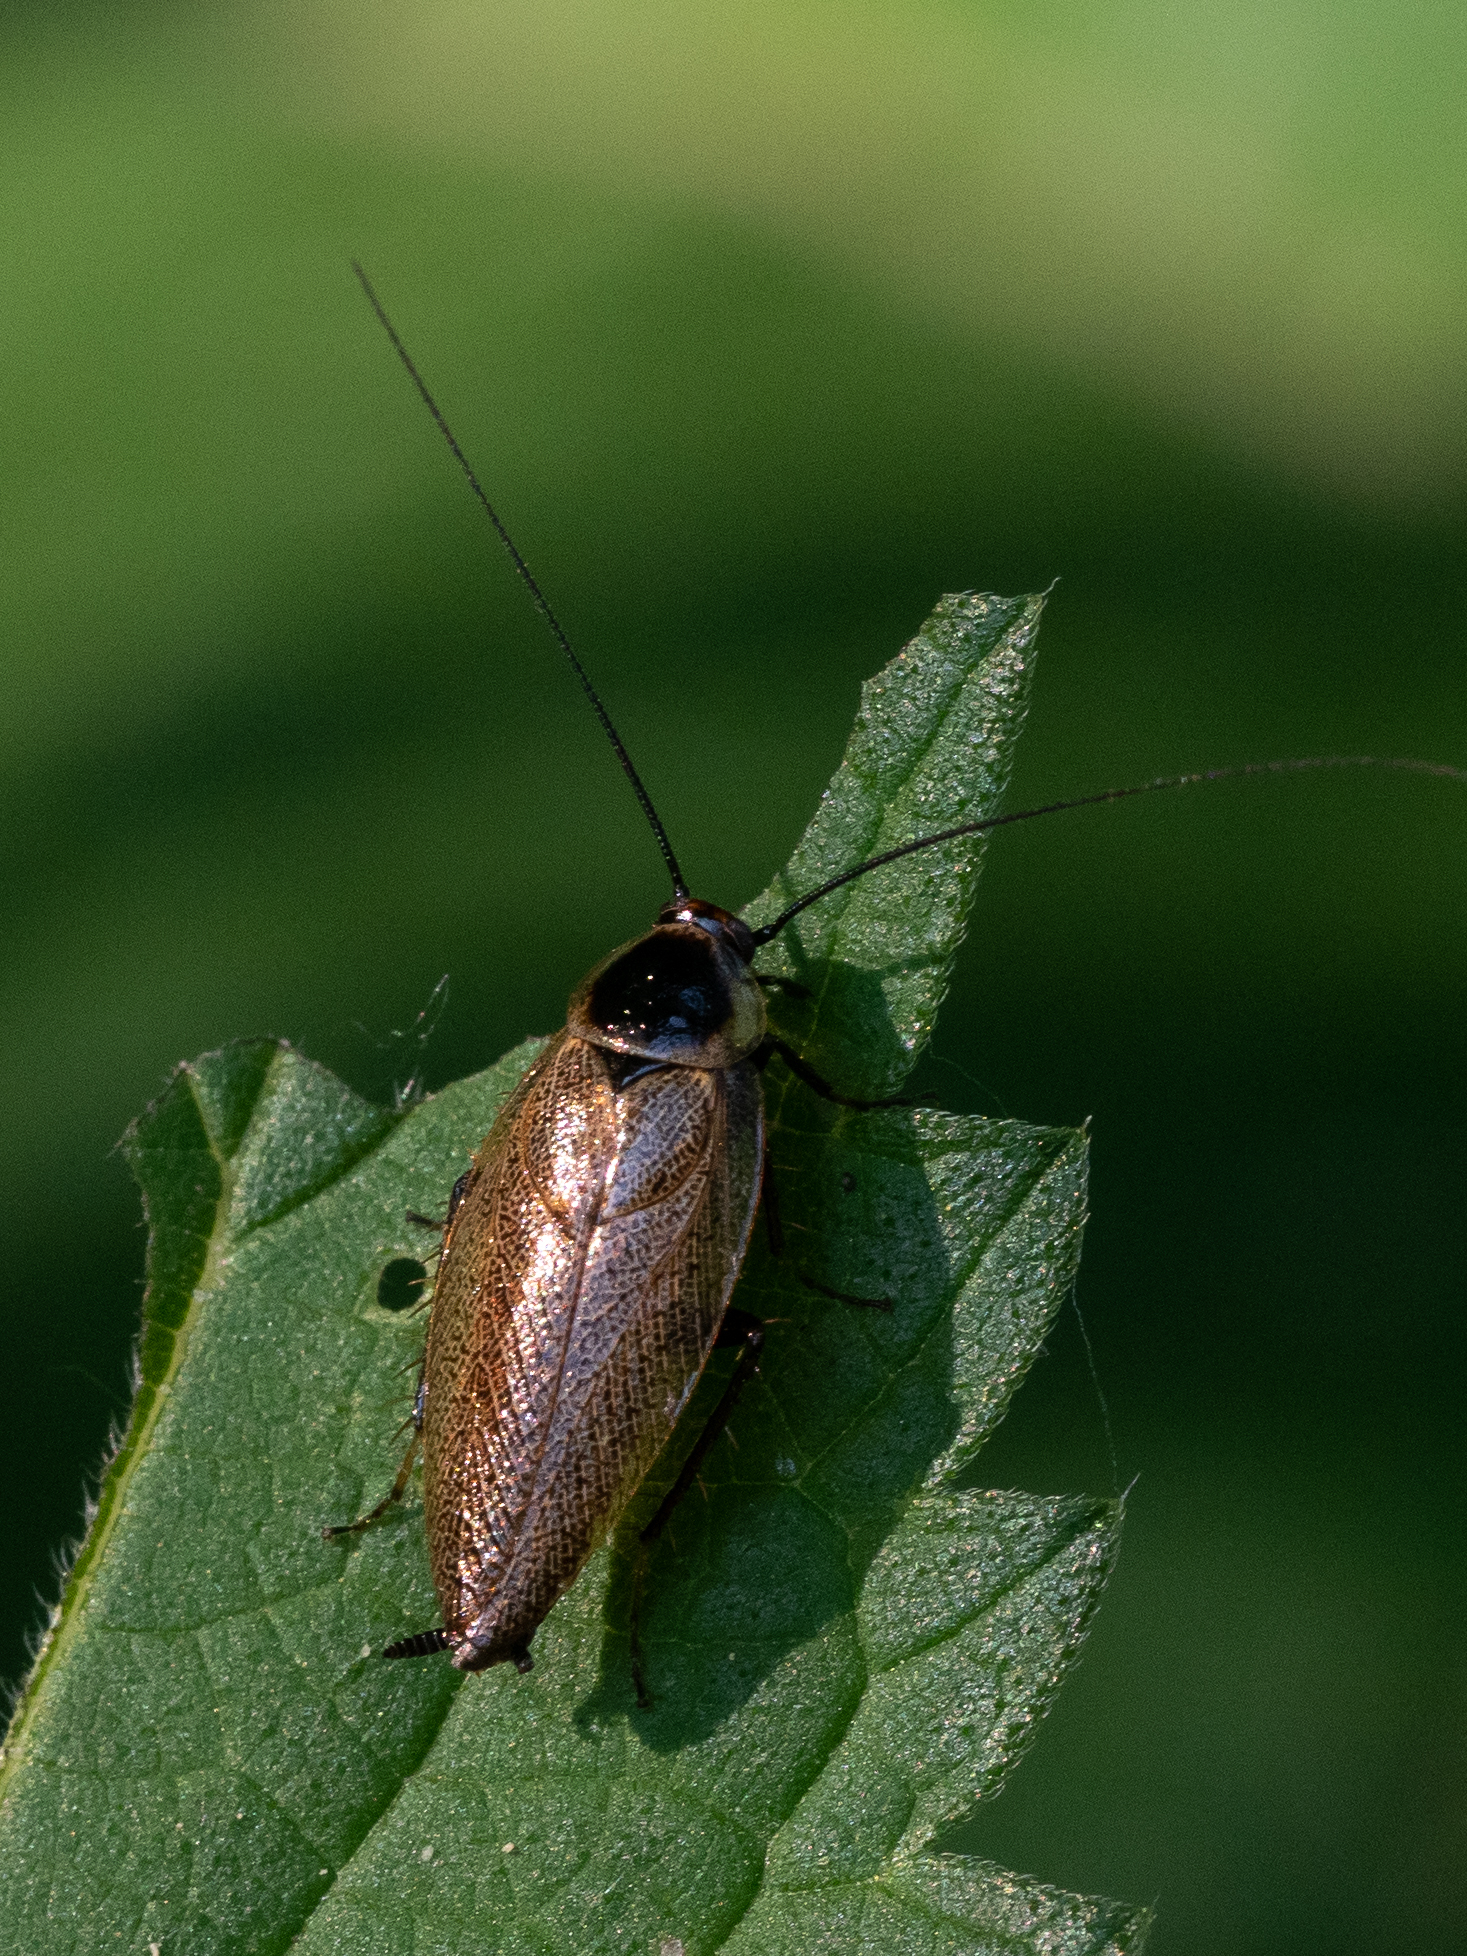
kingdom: Animalia
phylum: Arthropoda
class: Insecta
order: Blattodea
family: Ectobiidae
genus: Ectobius
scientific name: Ectobius erythronotus
